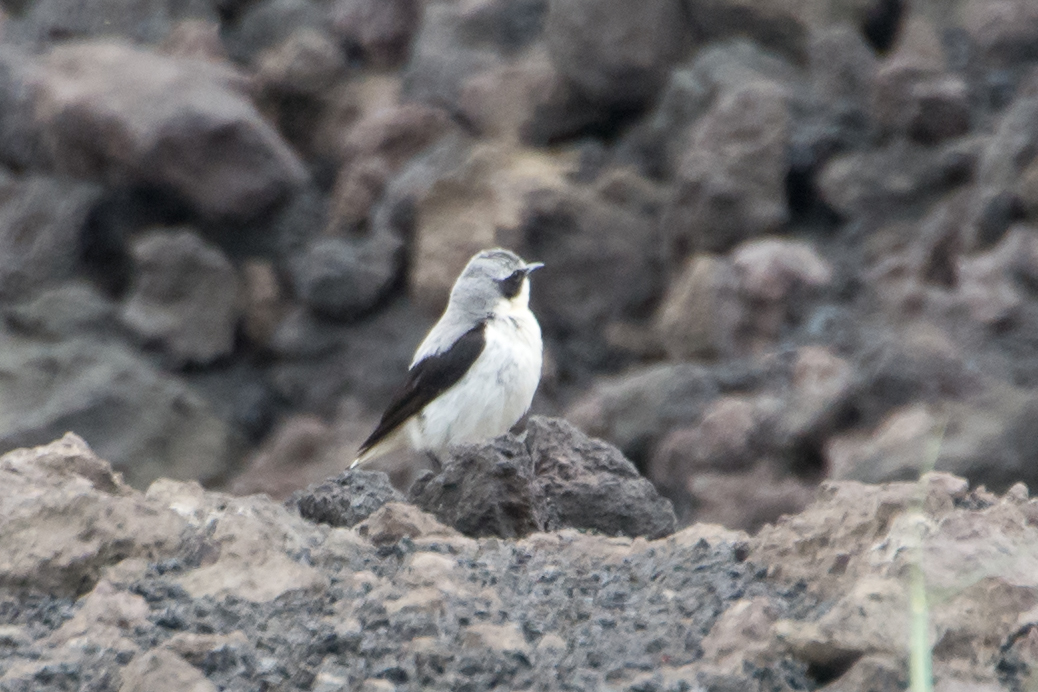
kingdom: Animalia
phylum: Chordata
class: Aves
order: Passeriformes
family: Muscicapidae
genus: Oenanthe
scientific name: Oenanthe oenanthe
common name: Northern wheatear
